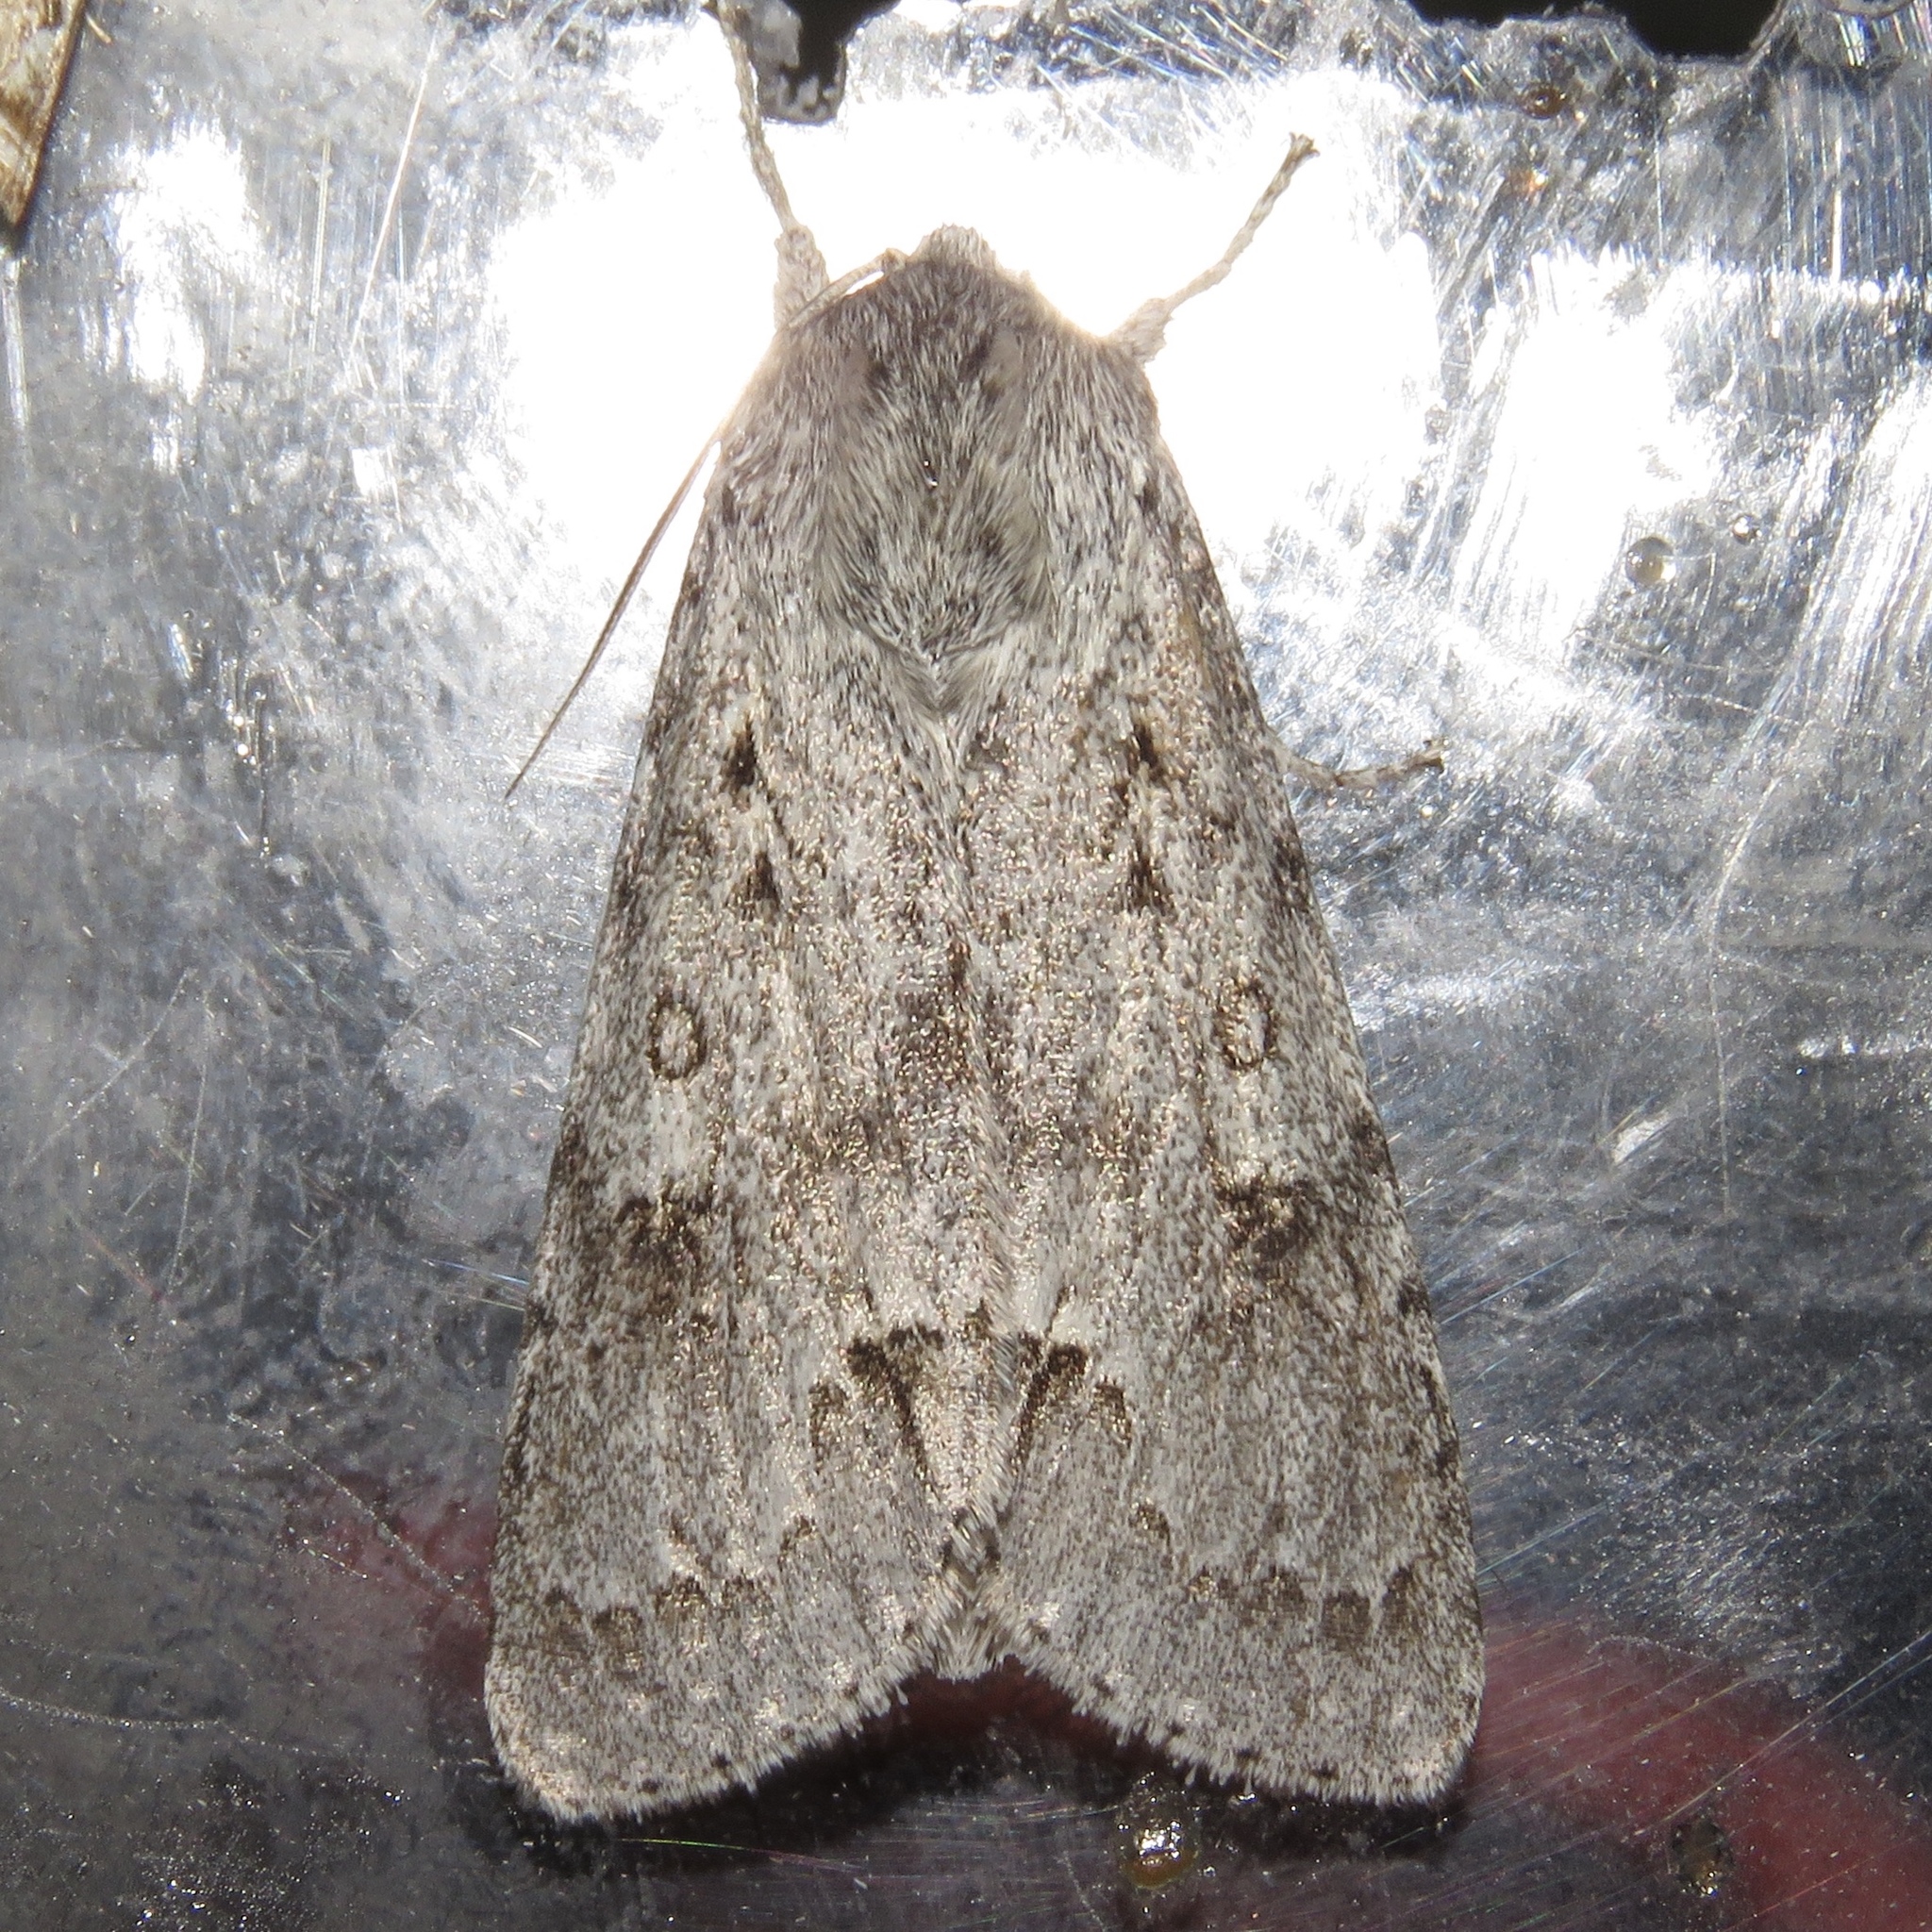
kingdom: Animalia
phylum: Arthropoda
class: Insecta
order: Lepidoptera
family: Noctuidae
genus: Acronicta
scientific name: Acronicta insita
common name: Large gray dagger
